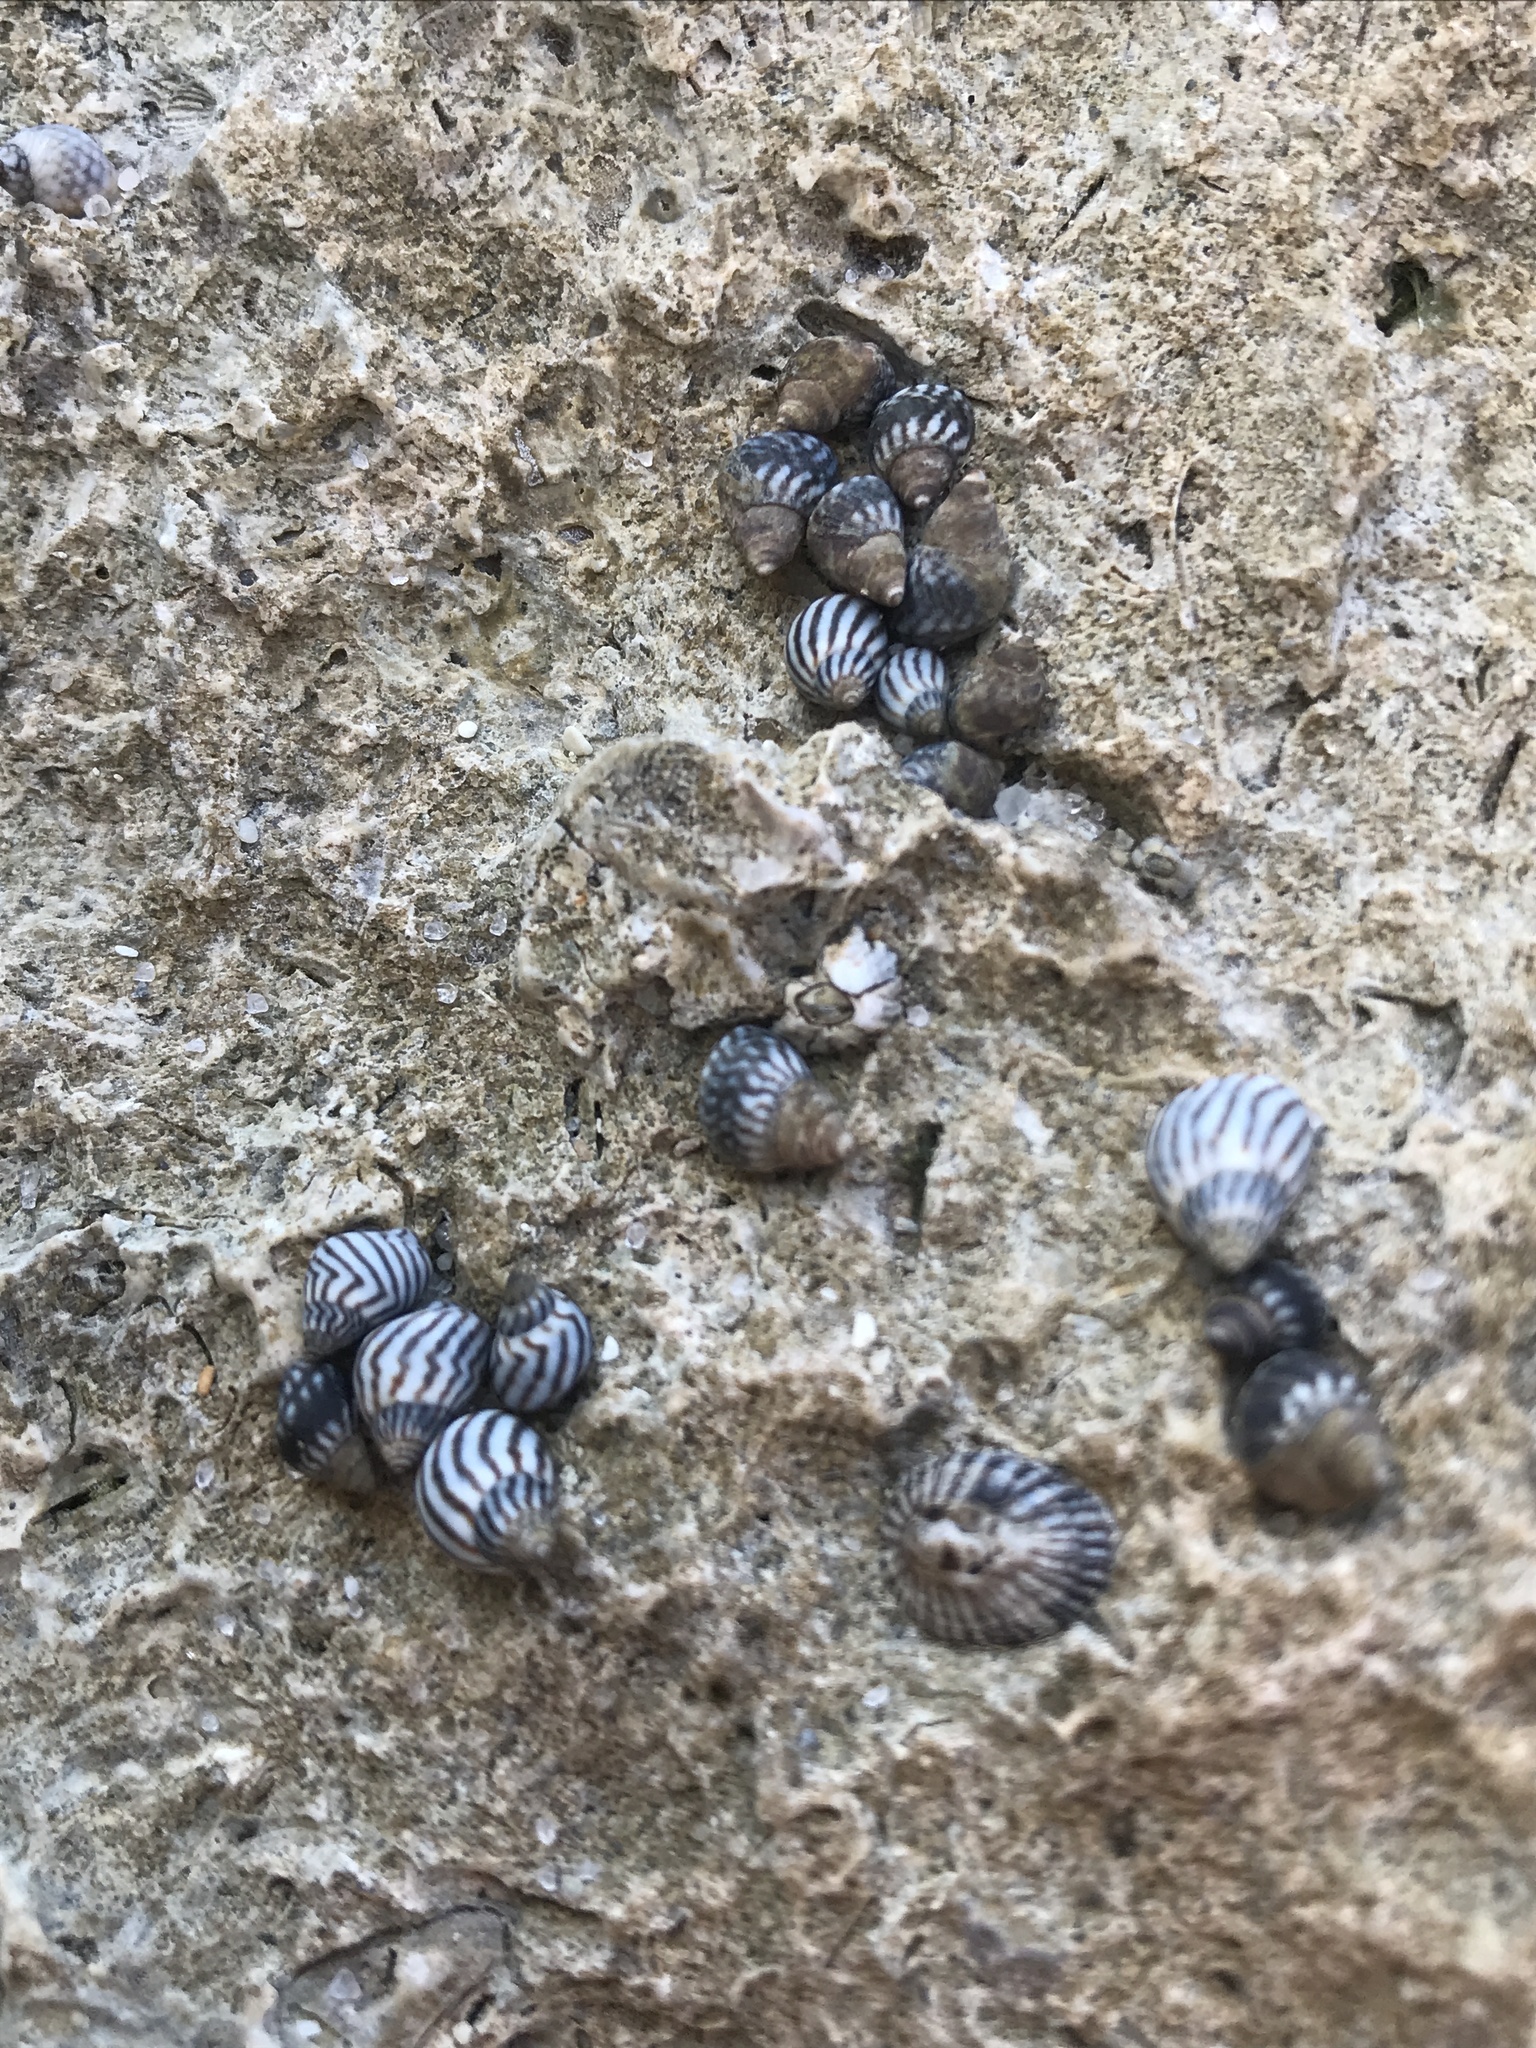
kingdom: Animalia
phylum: Mollusca
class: Gastropoda
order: Littorinimorpha
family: Littorinidae
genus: Echinolittorina
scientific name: Echinolittorina placida
